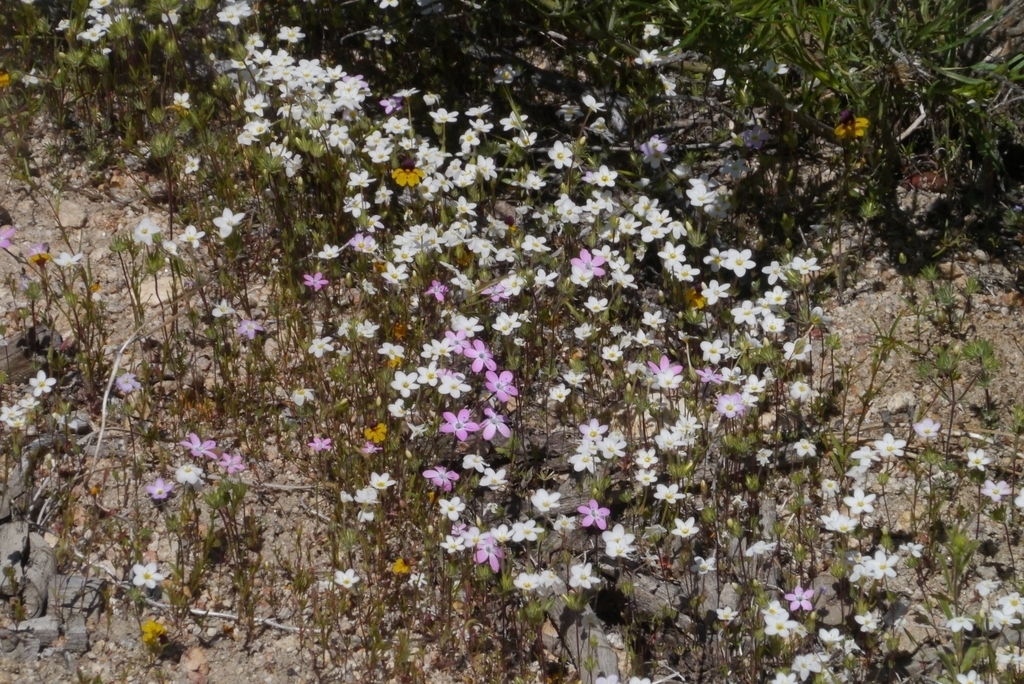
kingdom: Plantae
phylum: Tracheophyta
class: Magnoliopsida
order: Ericales
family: Polemoniaceae
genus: Gilia
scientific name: Gilia leptantha
